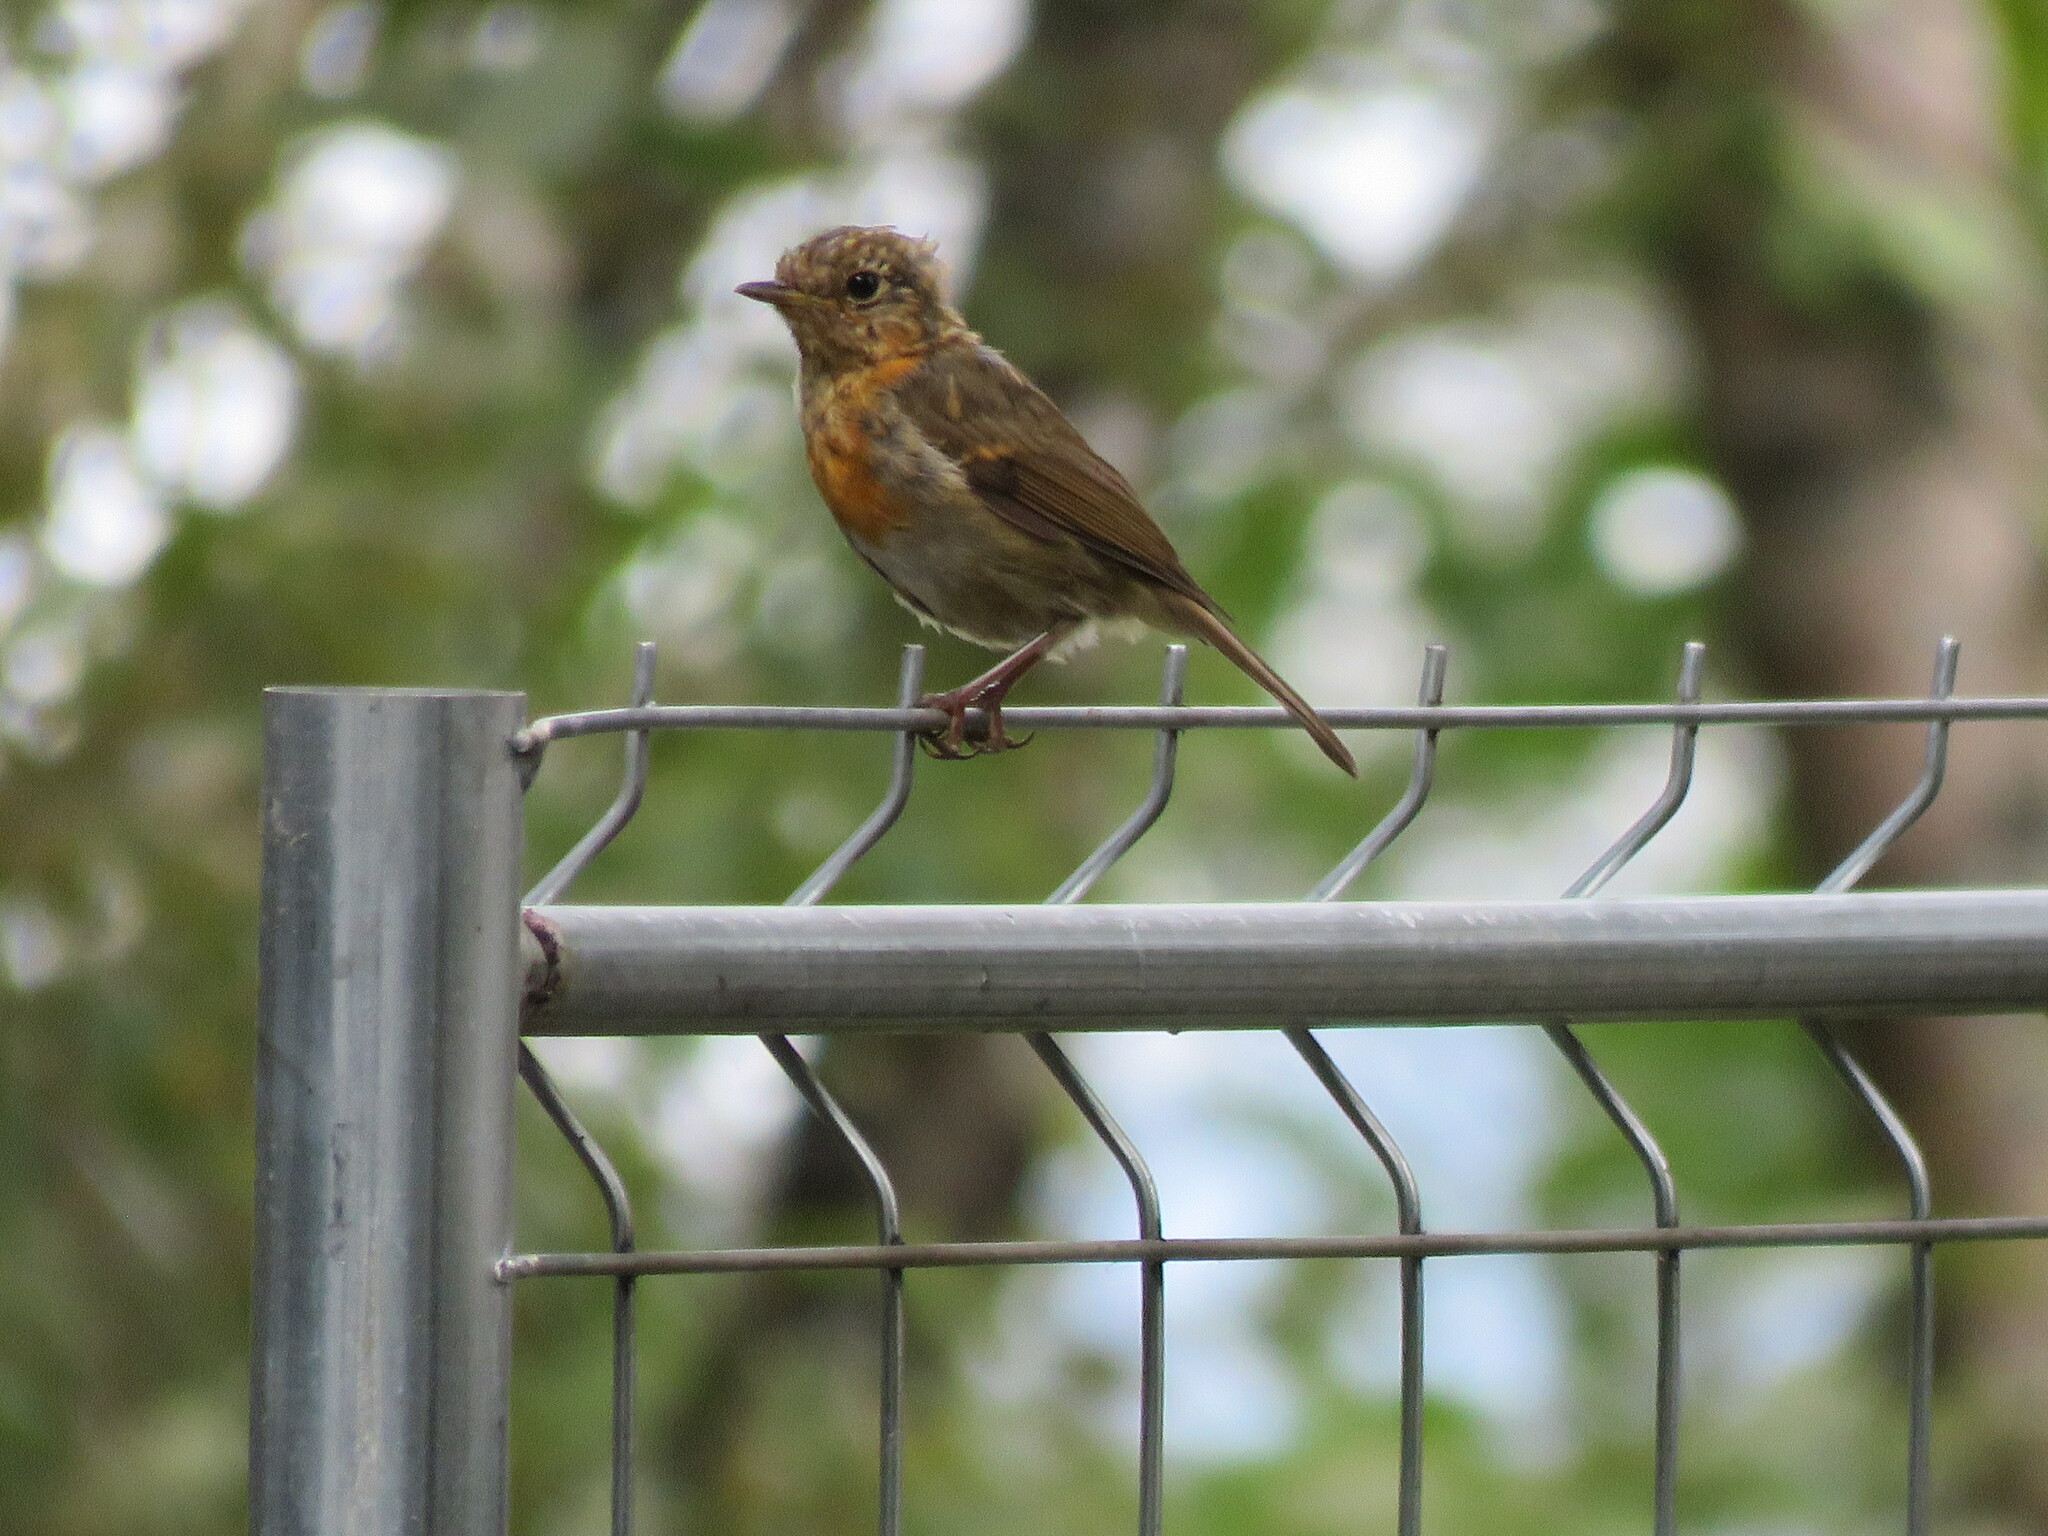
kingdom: Animalia
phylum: Chordata
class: Aves
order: Passeriformes
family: Muscicapidae
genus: Erithacus
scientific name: Erithacus rubecula
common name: European robin
